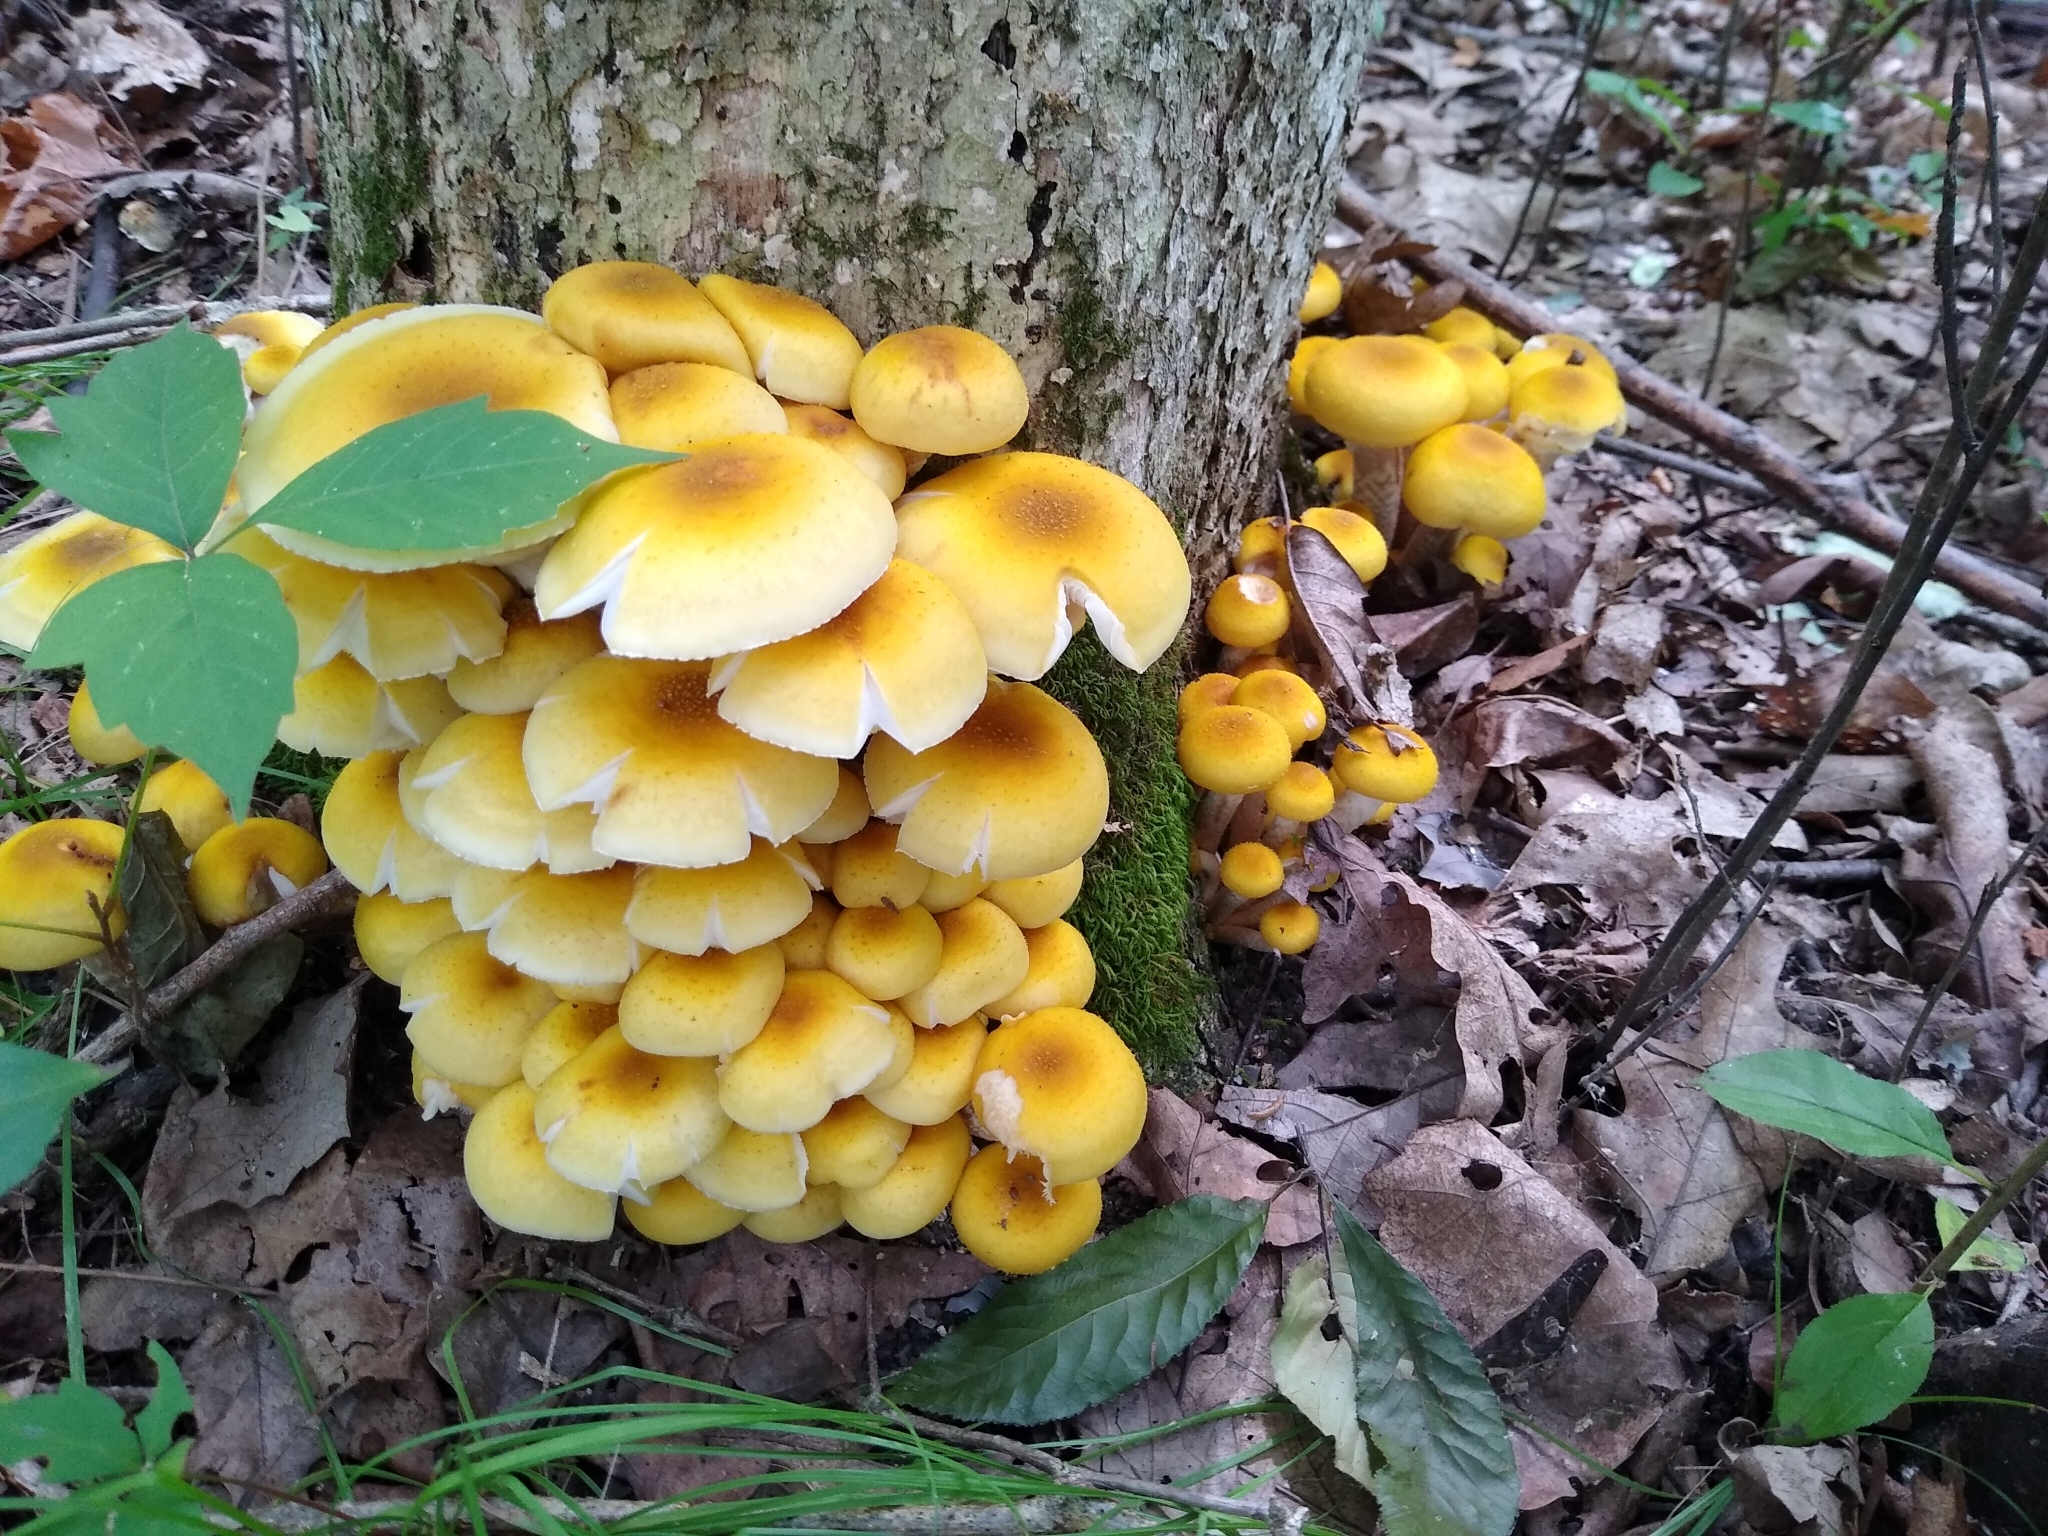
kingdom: Fungi
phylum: Basidiomycota
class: Agaricomycetes
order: Agaricales
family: Physalacriaceae
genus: Armillaria
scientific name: Armillaria mellea
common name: Honey fungus
